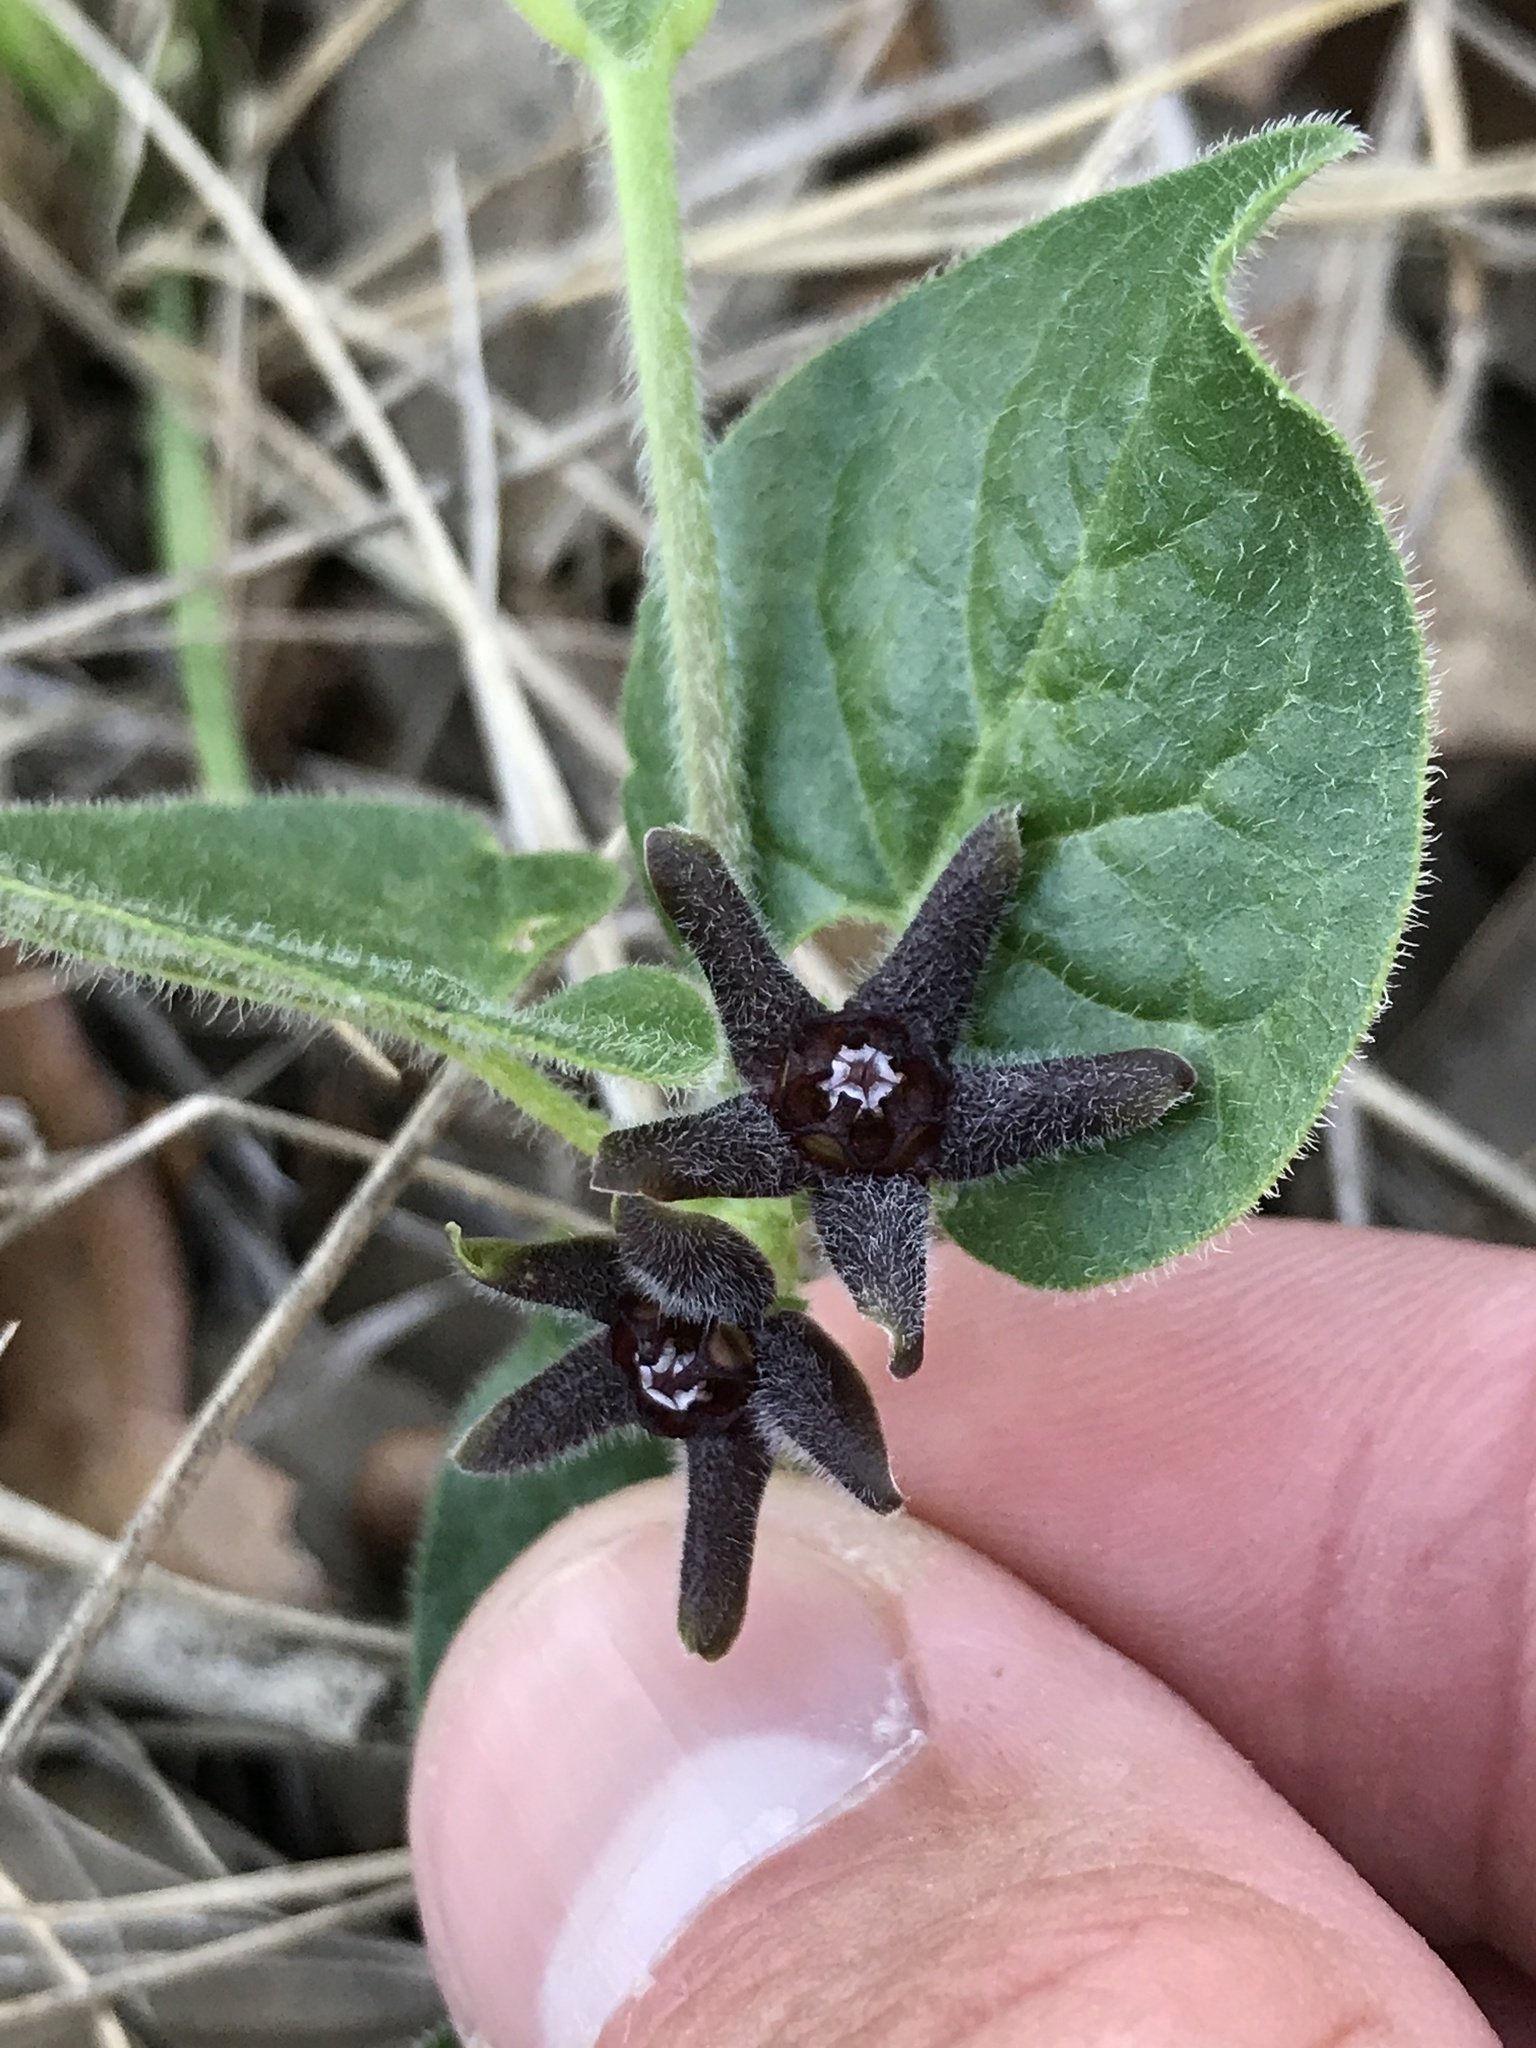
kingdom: Plantae
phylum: Tracheophyta
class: Magnoliopsida
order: Gentianales
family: Apocynaceae
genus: Chthamalia
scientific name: Chthamalia biflora
